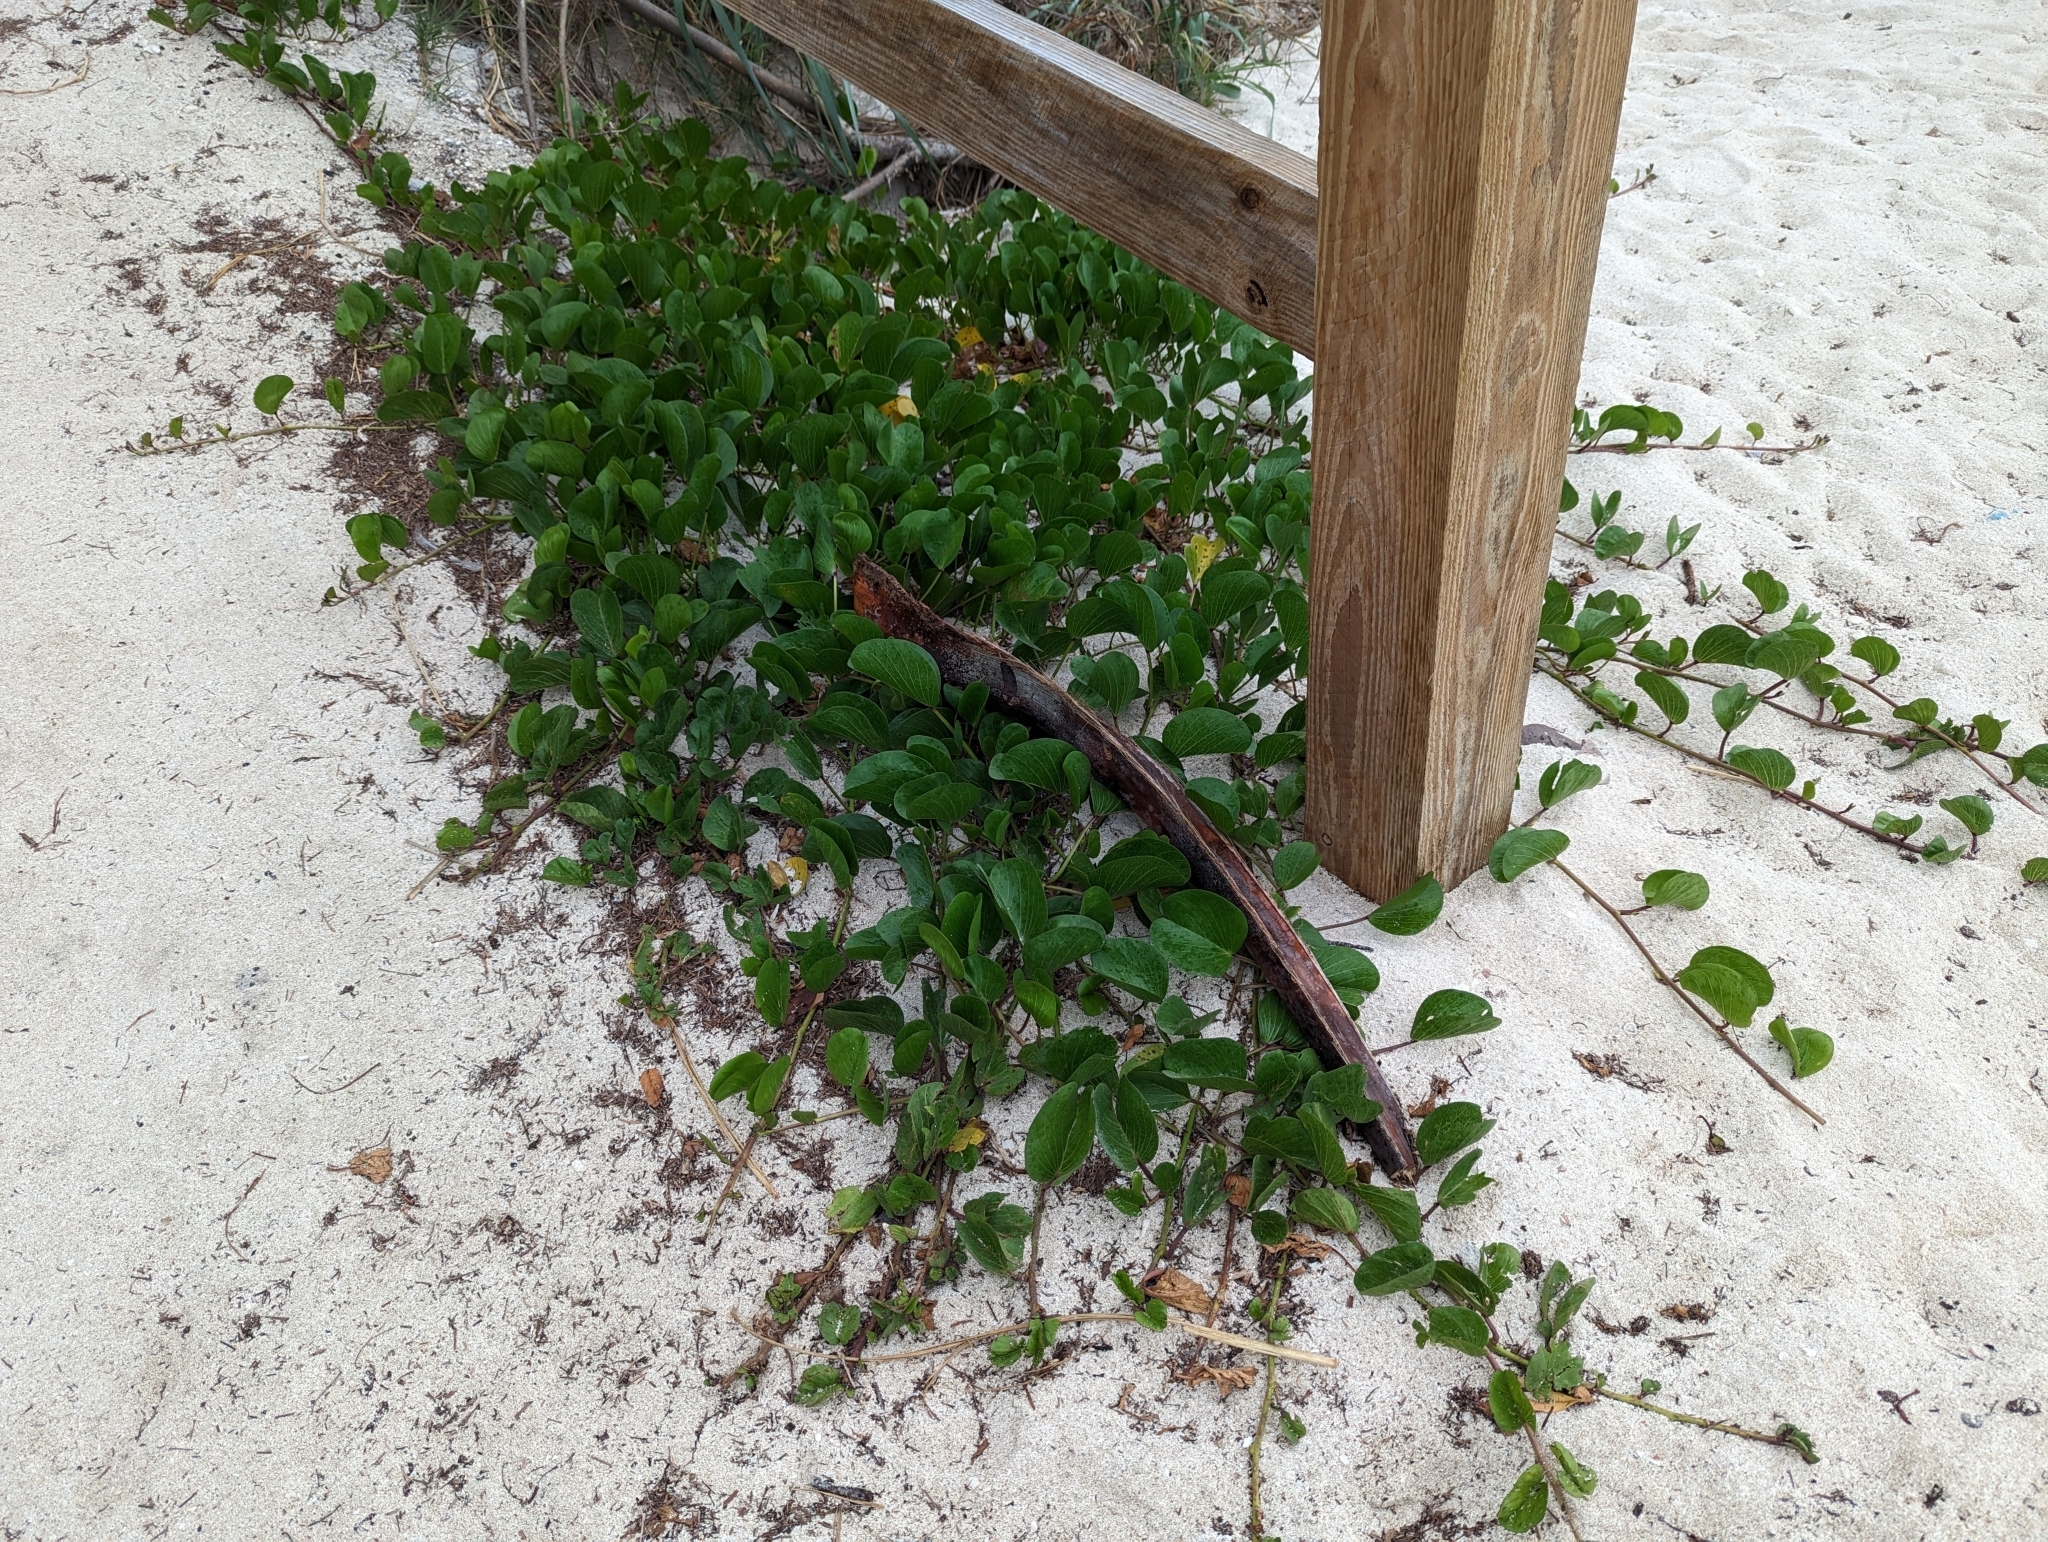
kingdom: Plantae
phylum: Tracheophyta
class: Magnoliopsida
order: Solanales
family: Convolvulaceae
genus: Ipomoea
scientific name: Ipomoea pes-caprae
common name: Beach morning glory
